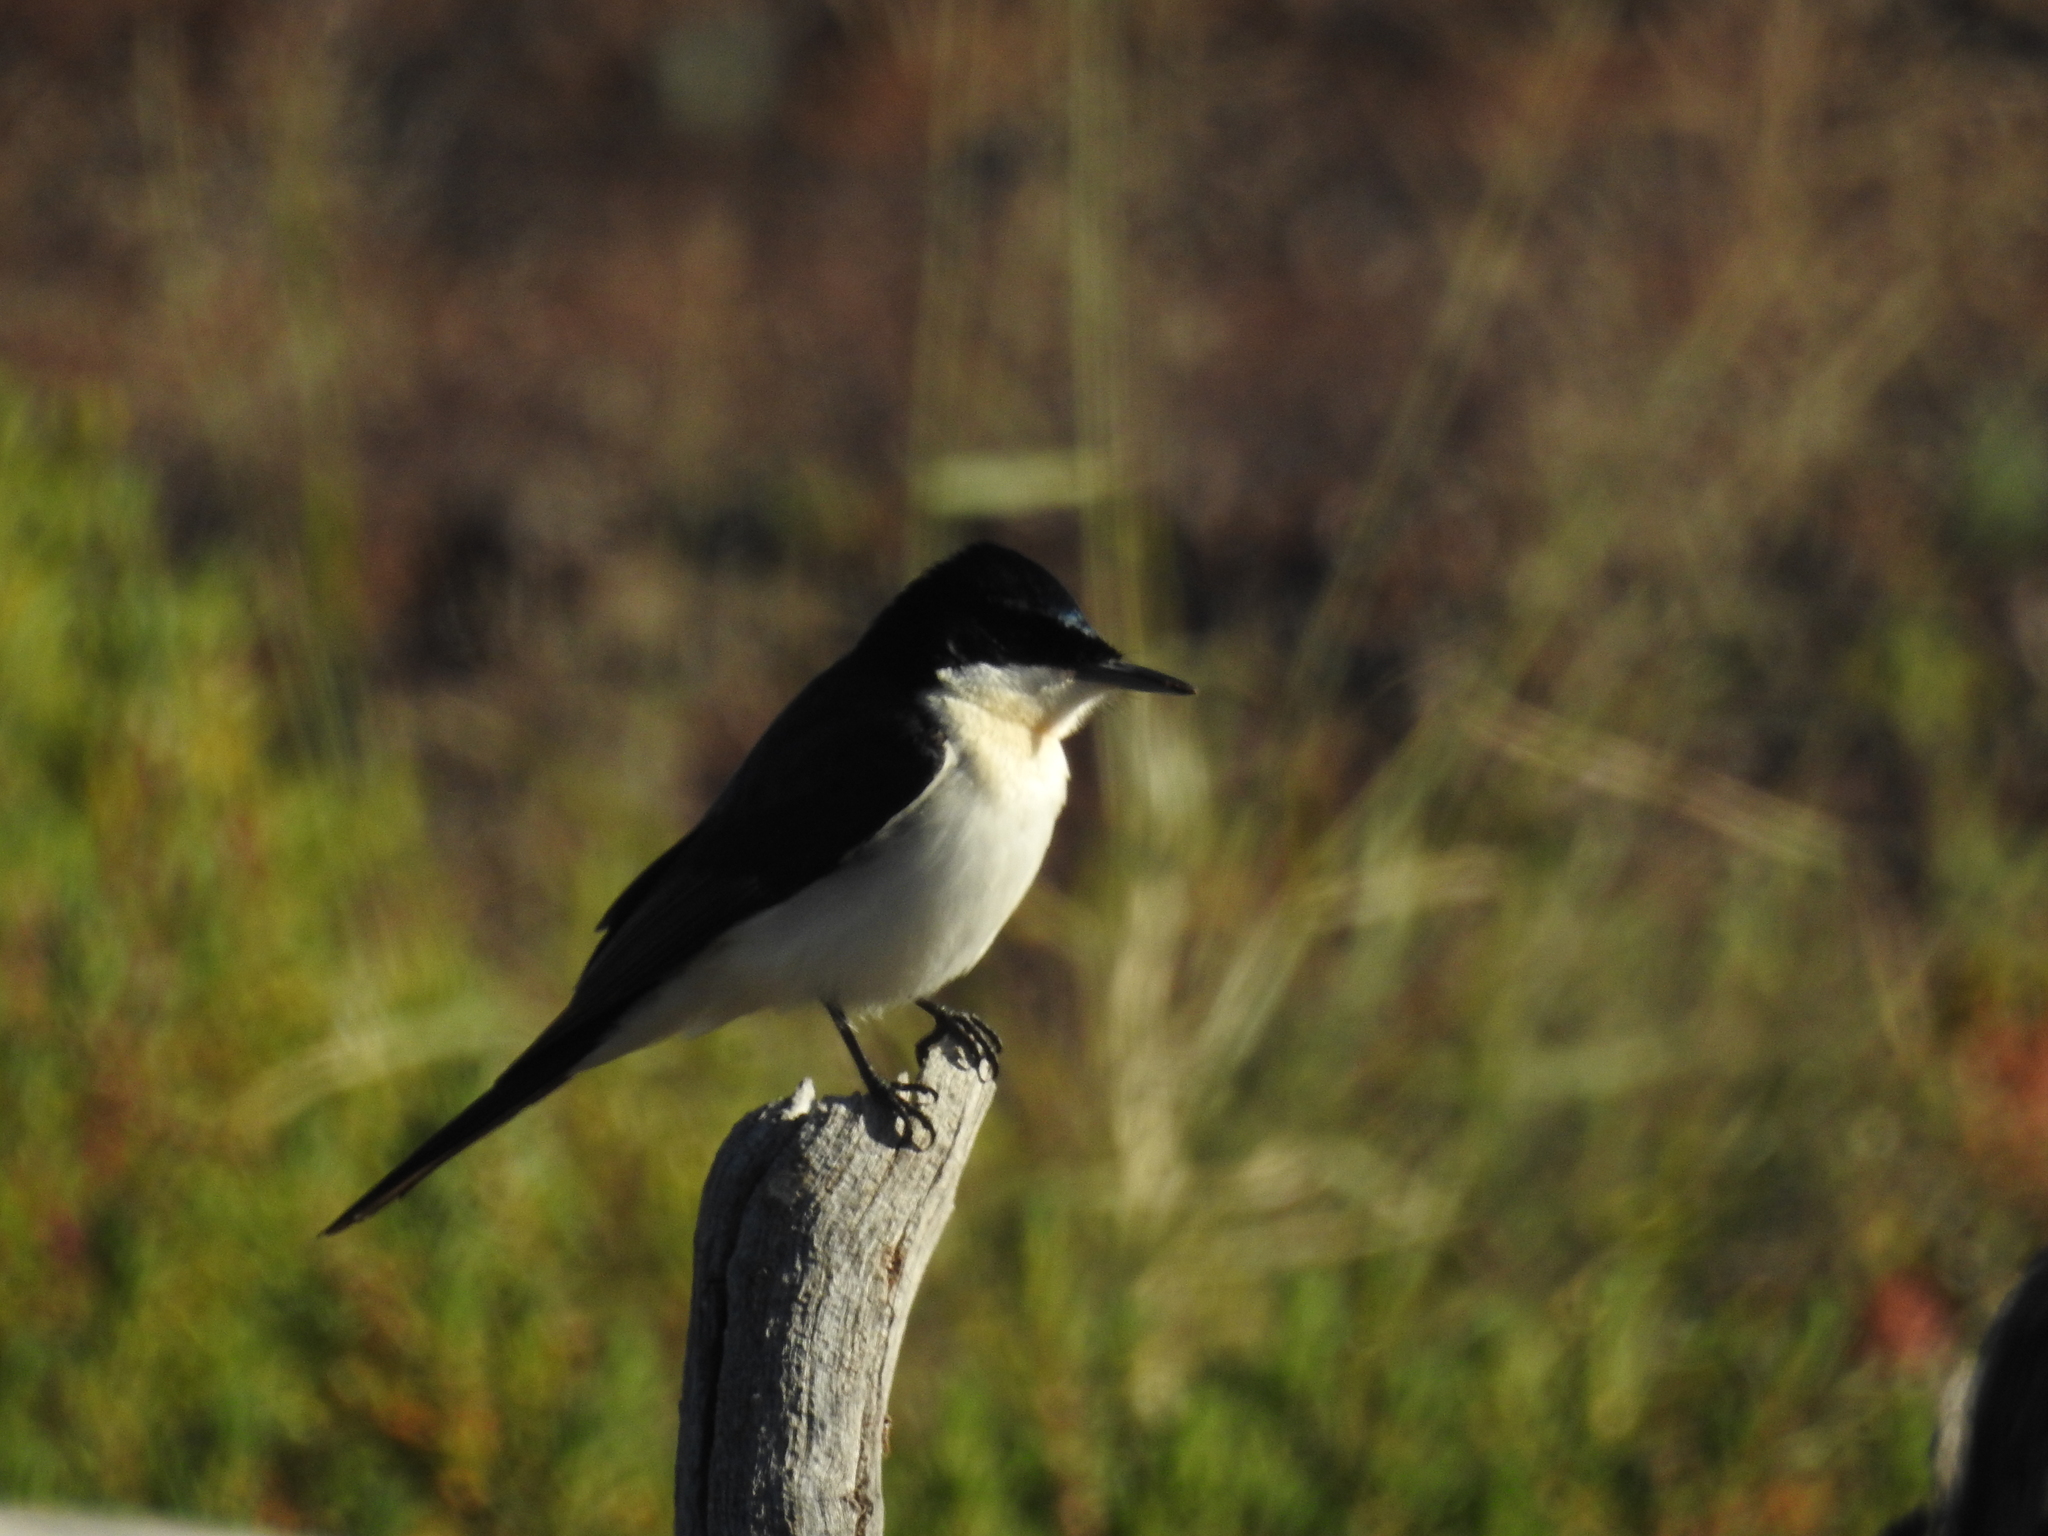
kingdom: Animalia
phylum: Chordata
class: Aves
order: Passeriformes
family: Monarchidae
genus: Myiagra
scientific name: Myiagra inquieta
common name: Restless flycatcher
